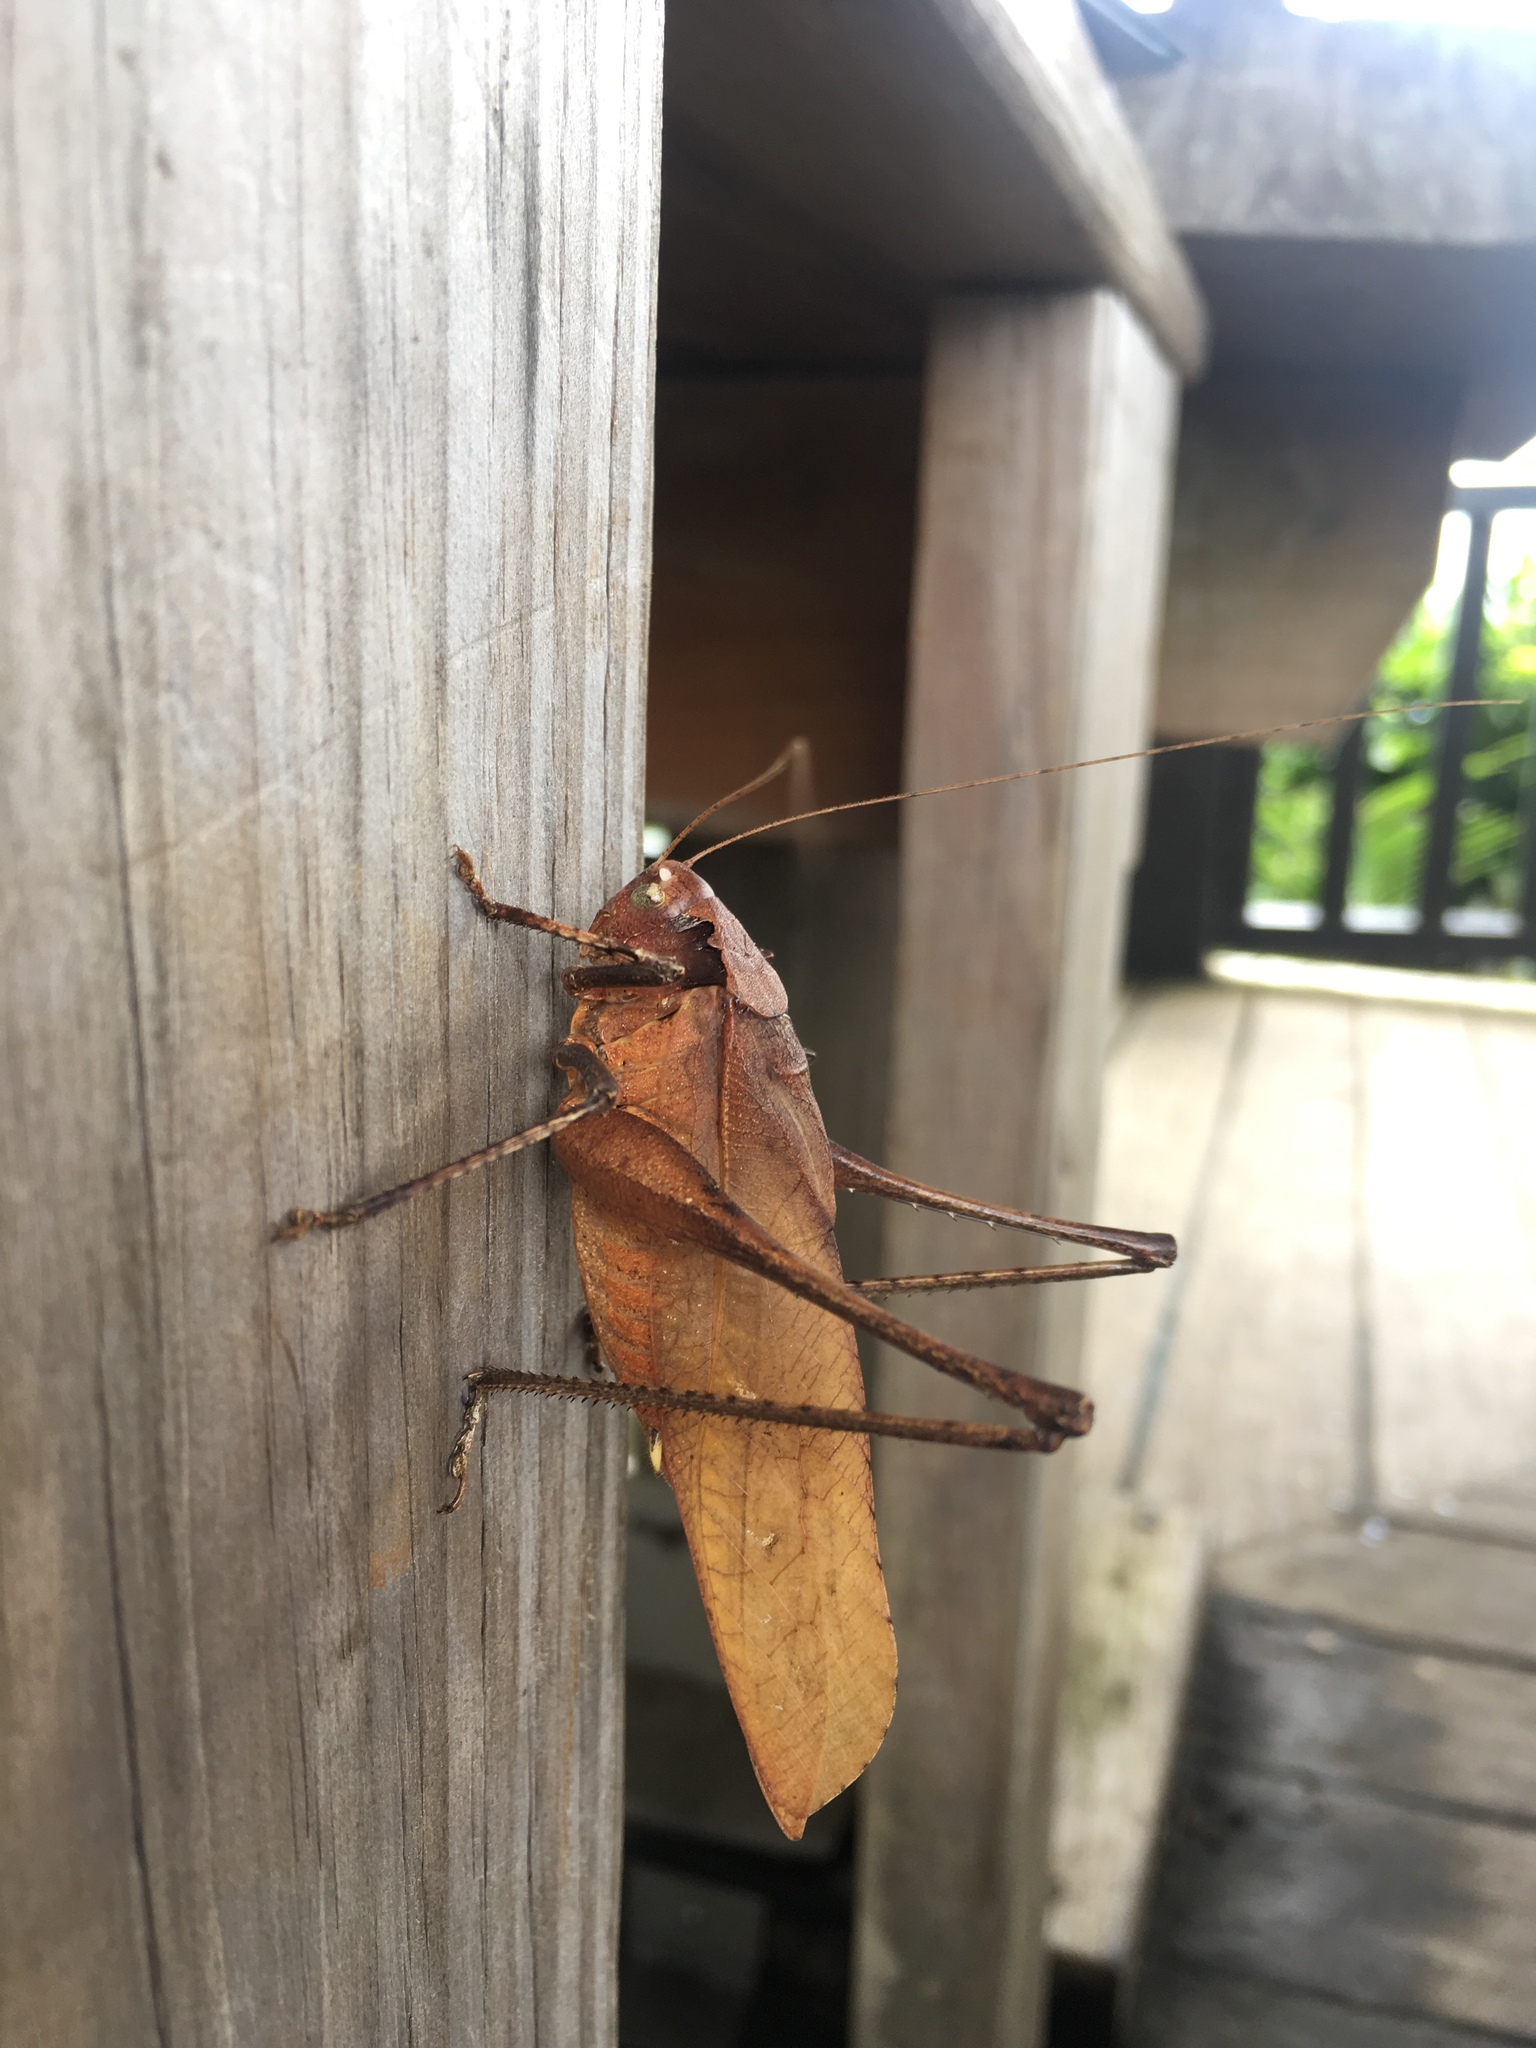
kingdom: Animalia
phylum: Arthropoda
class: Insecta
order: Orthoptera
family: Tettigoniidae
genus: Mecopoda
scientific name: Mecopoda elongata
